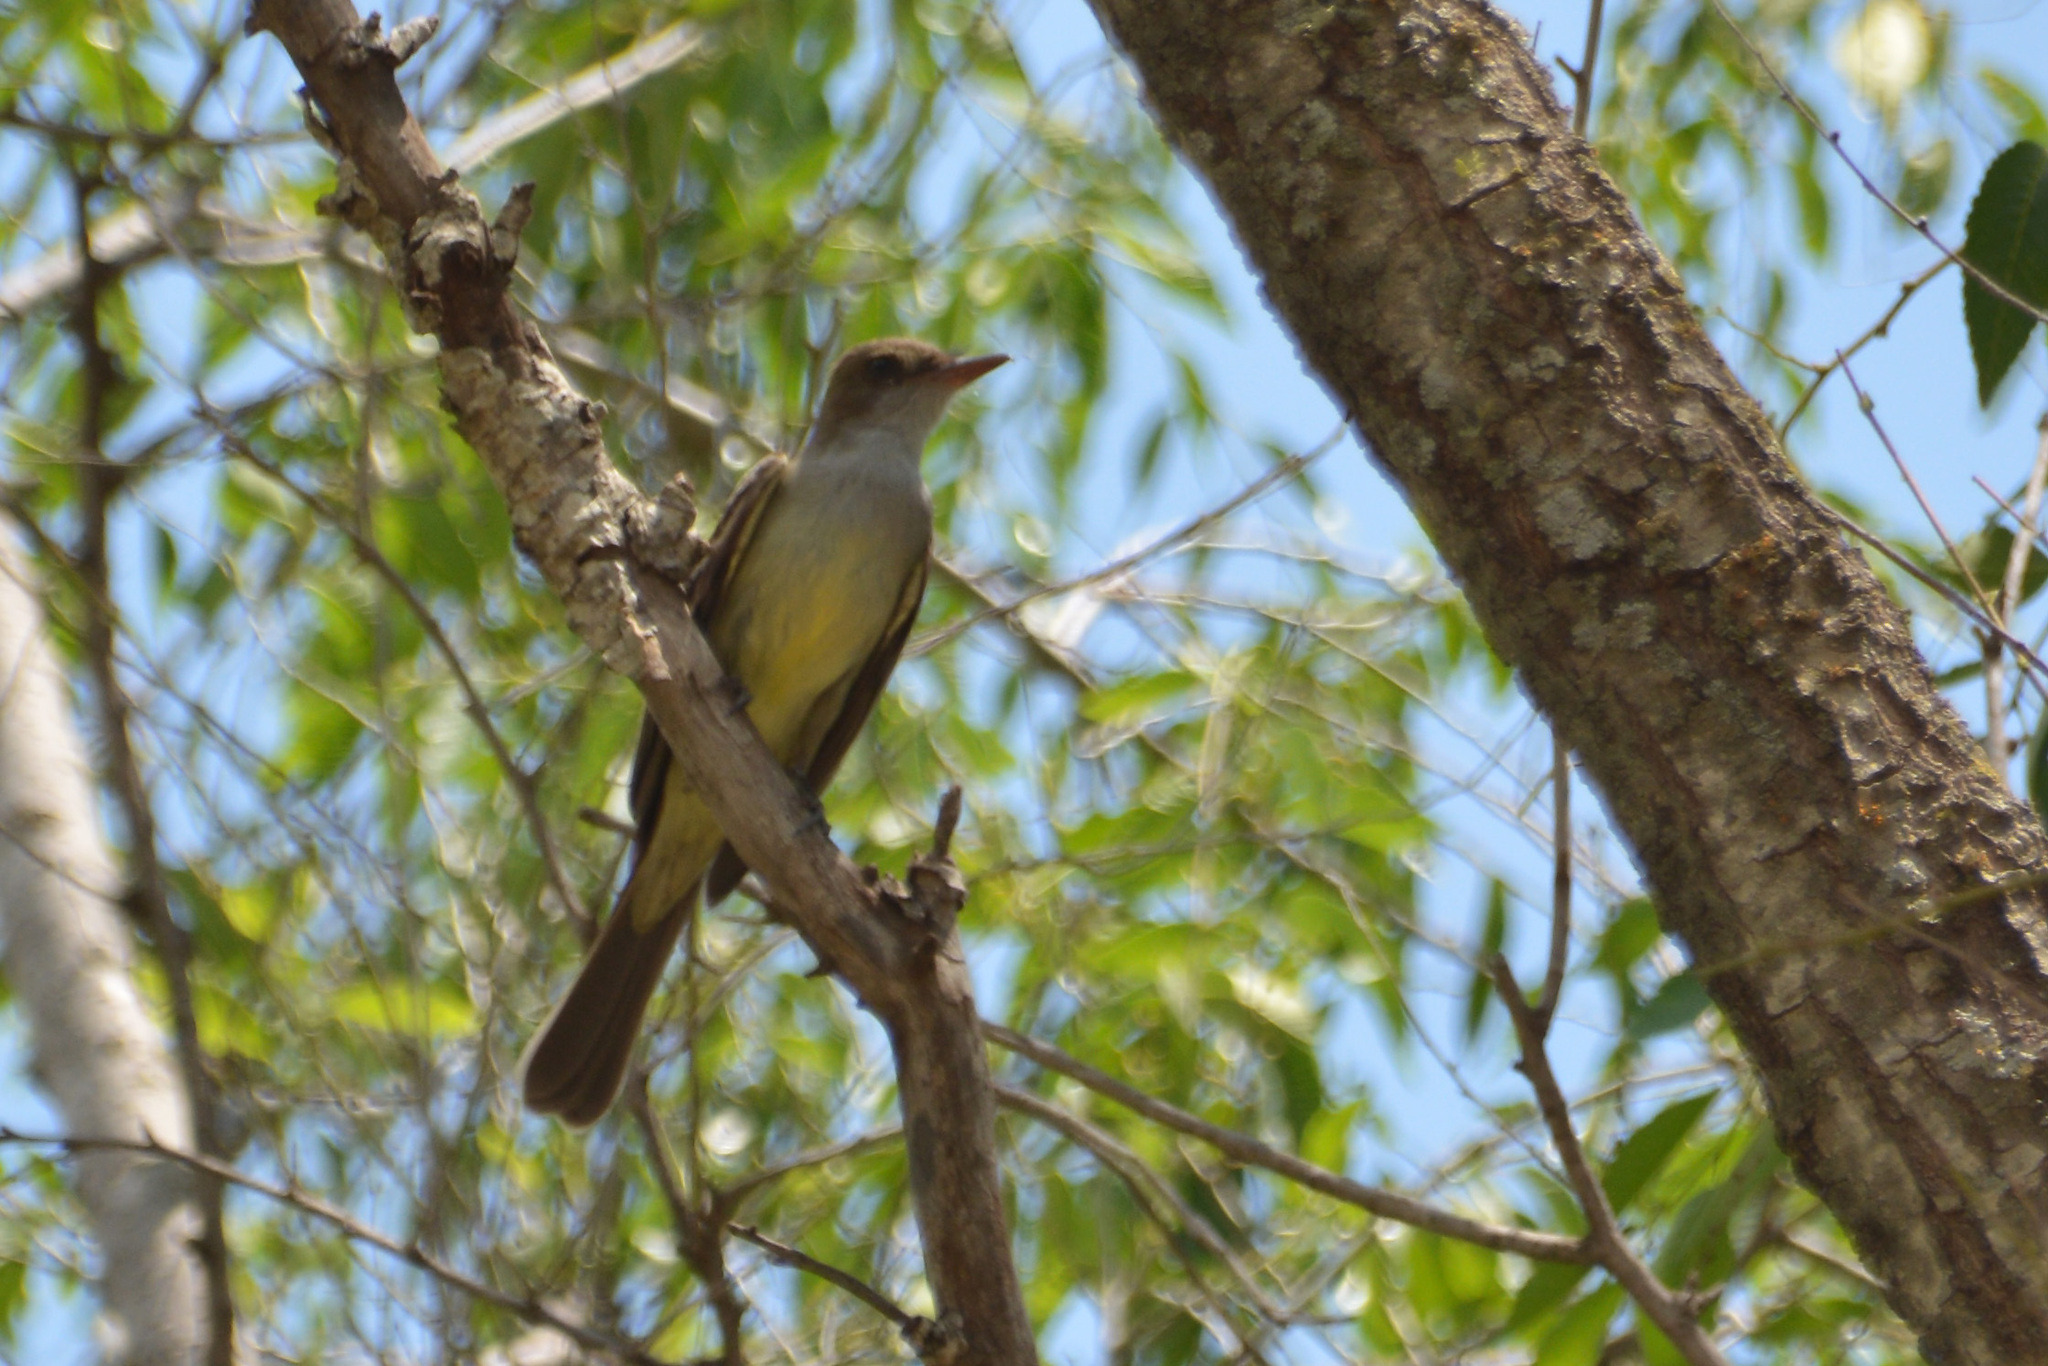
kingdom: Animalia
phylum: Chordata
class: Aves
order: Passeriformes
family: Tyrannidae
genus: Myiarchus
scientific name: Myiarchus swainsoni
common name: Swainson's flycatcher
